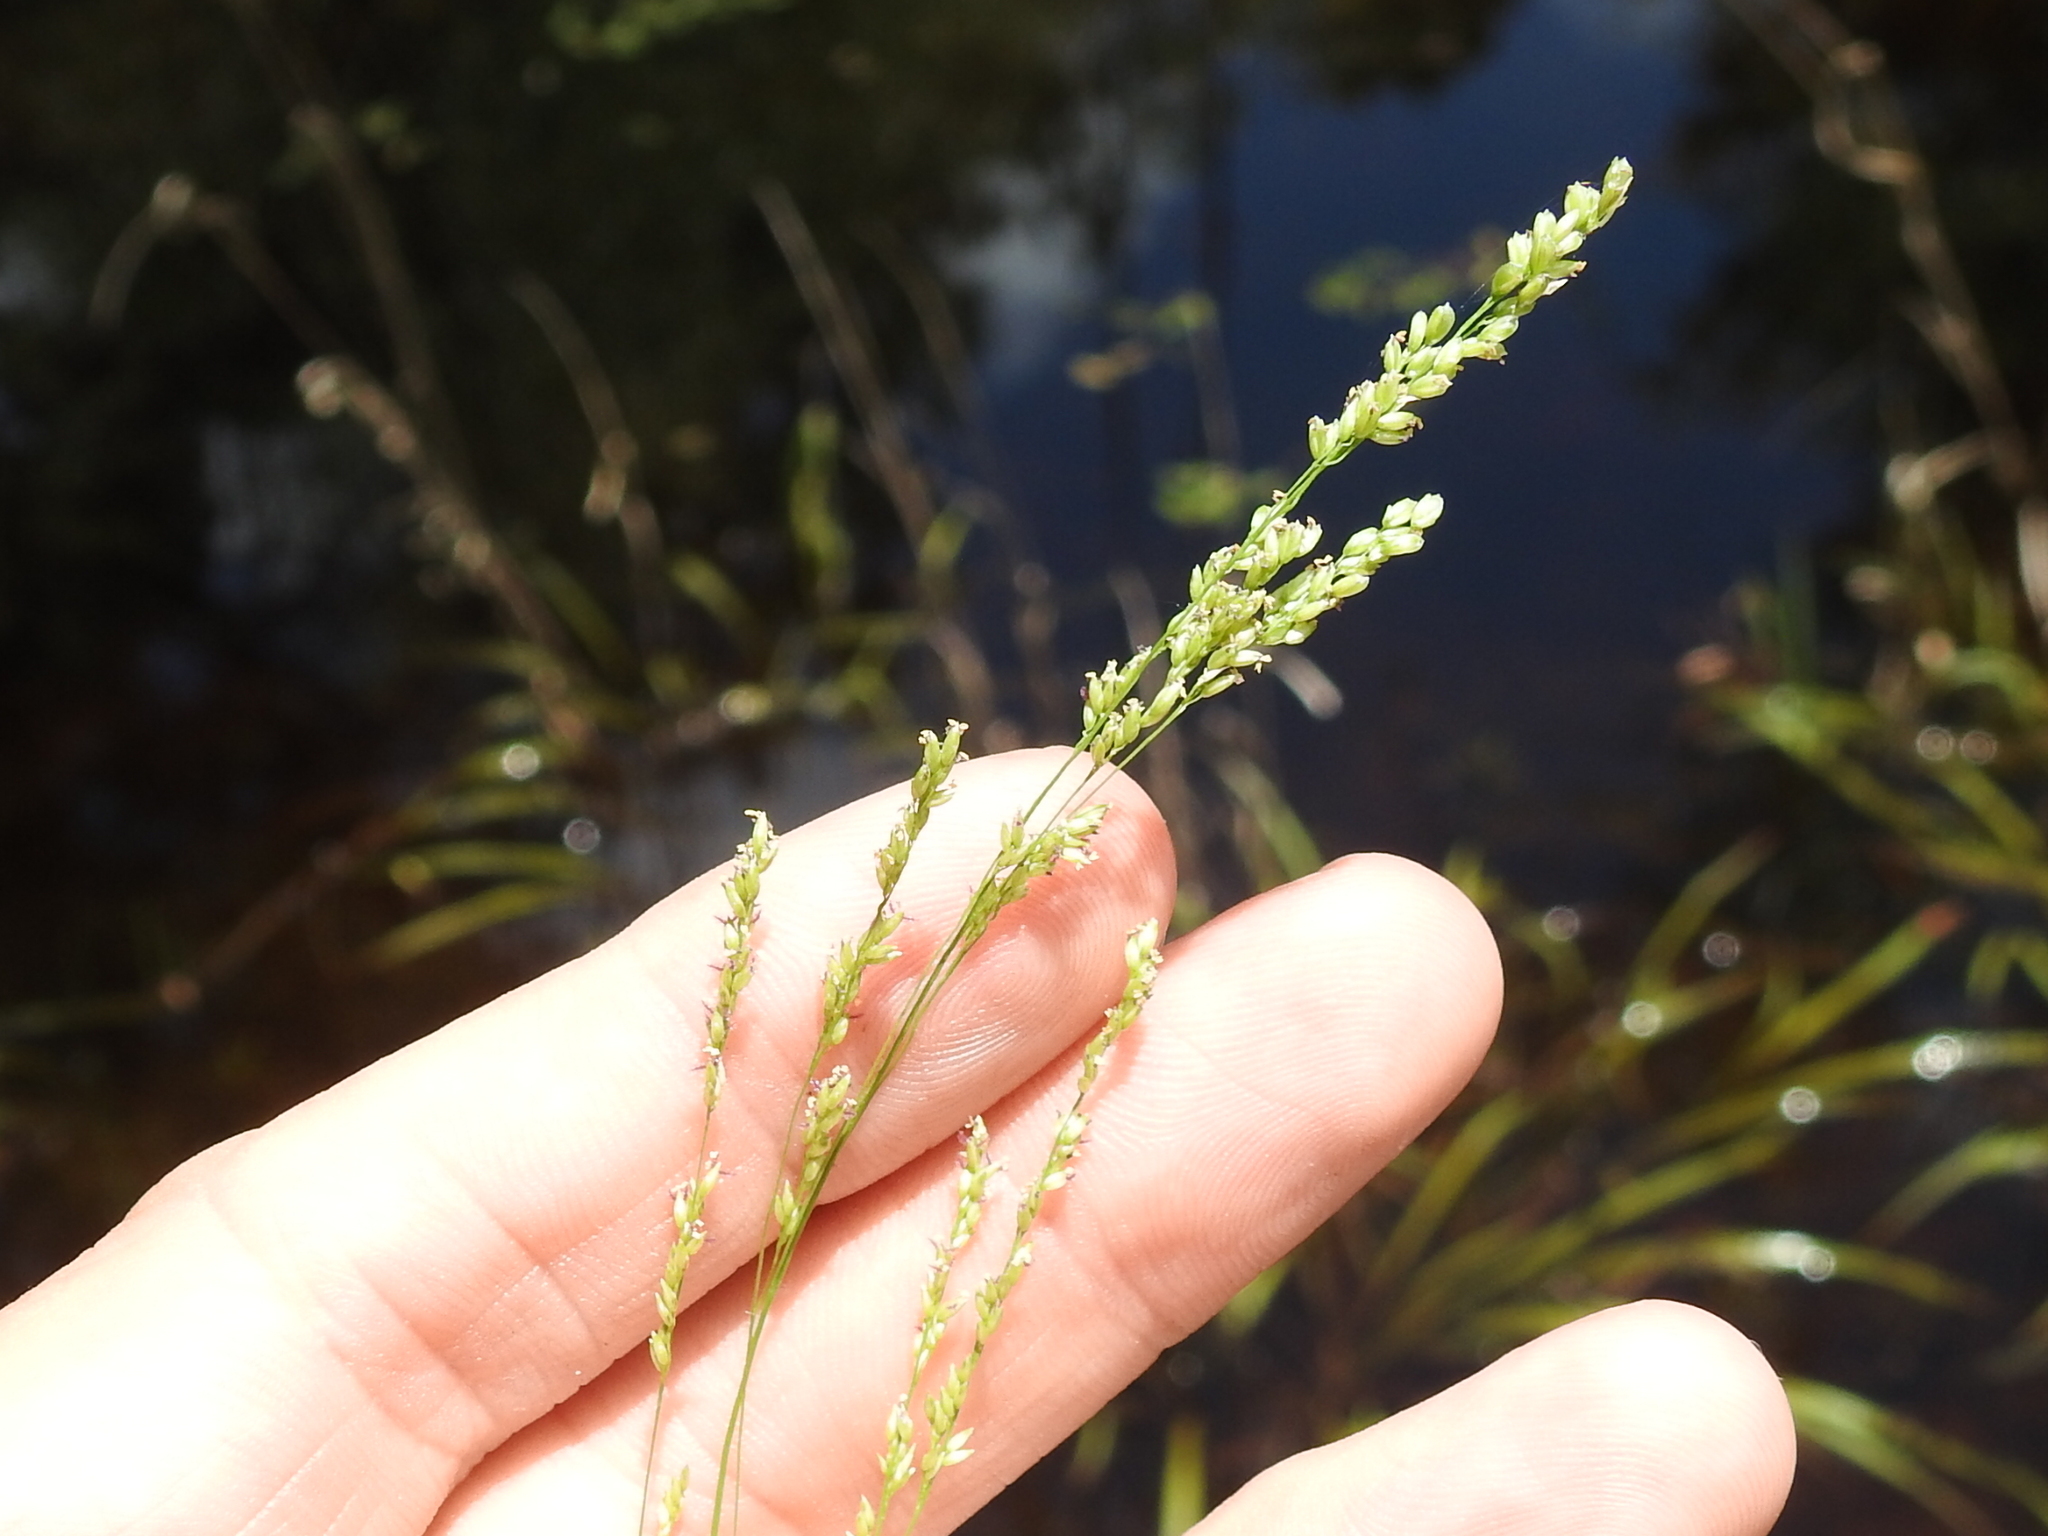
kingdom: Plantae
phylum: Tracheophyta
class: Liliopsida
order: Poales
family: Poaceae
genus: Steinchisma
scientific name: Steinchisma hians
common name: Gaping panic grass
